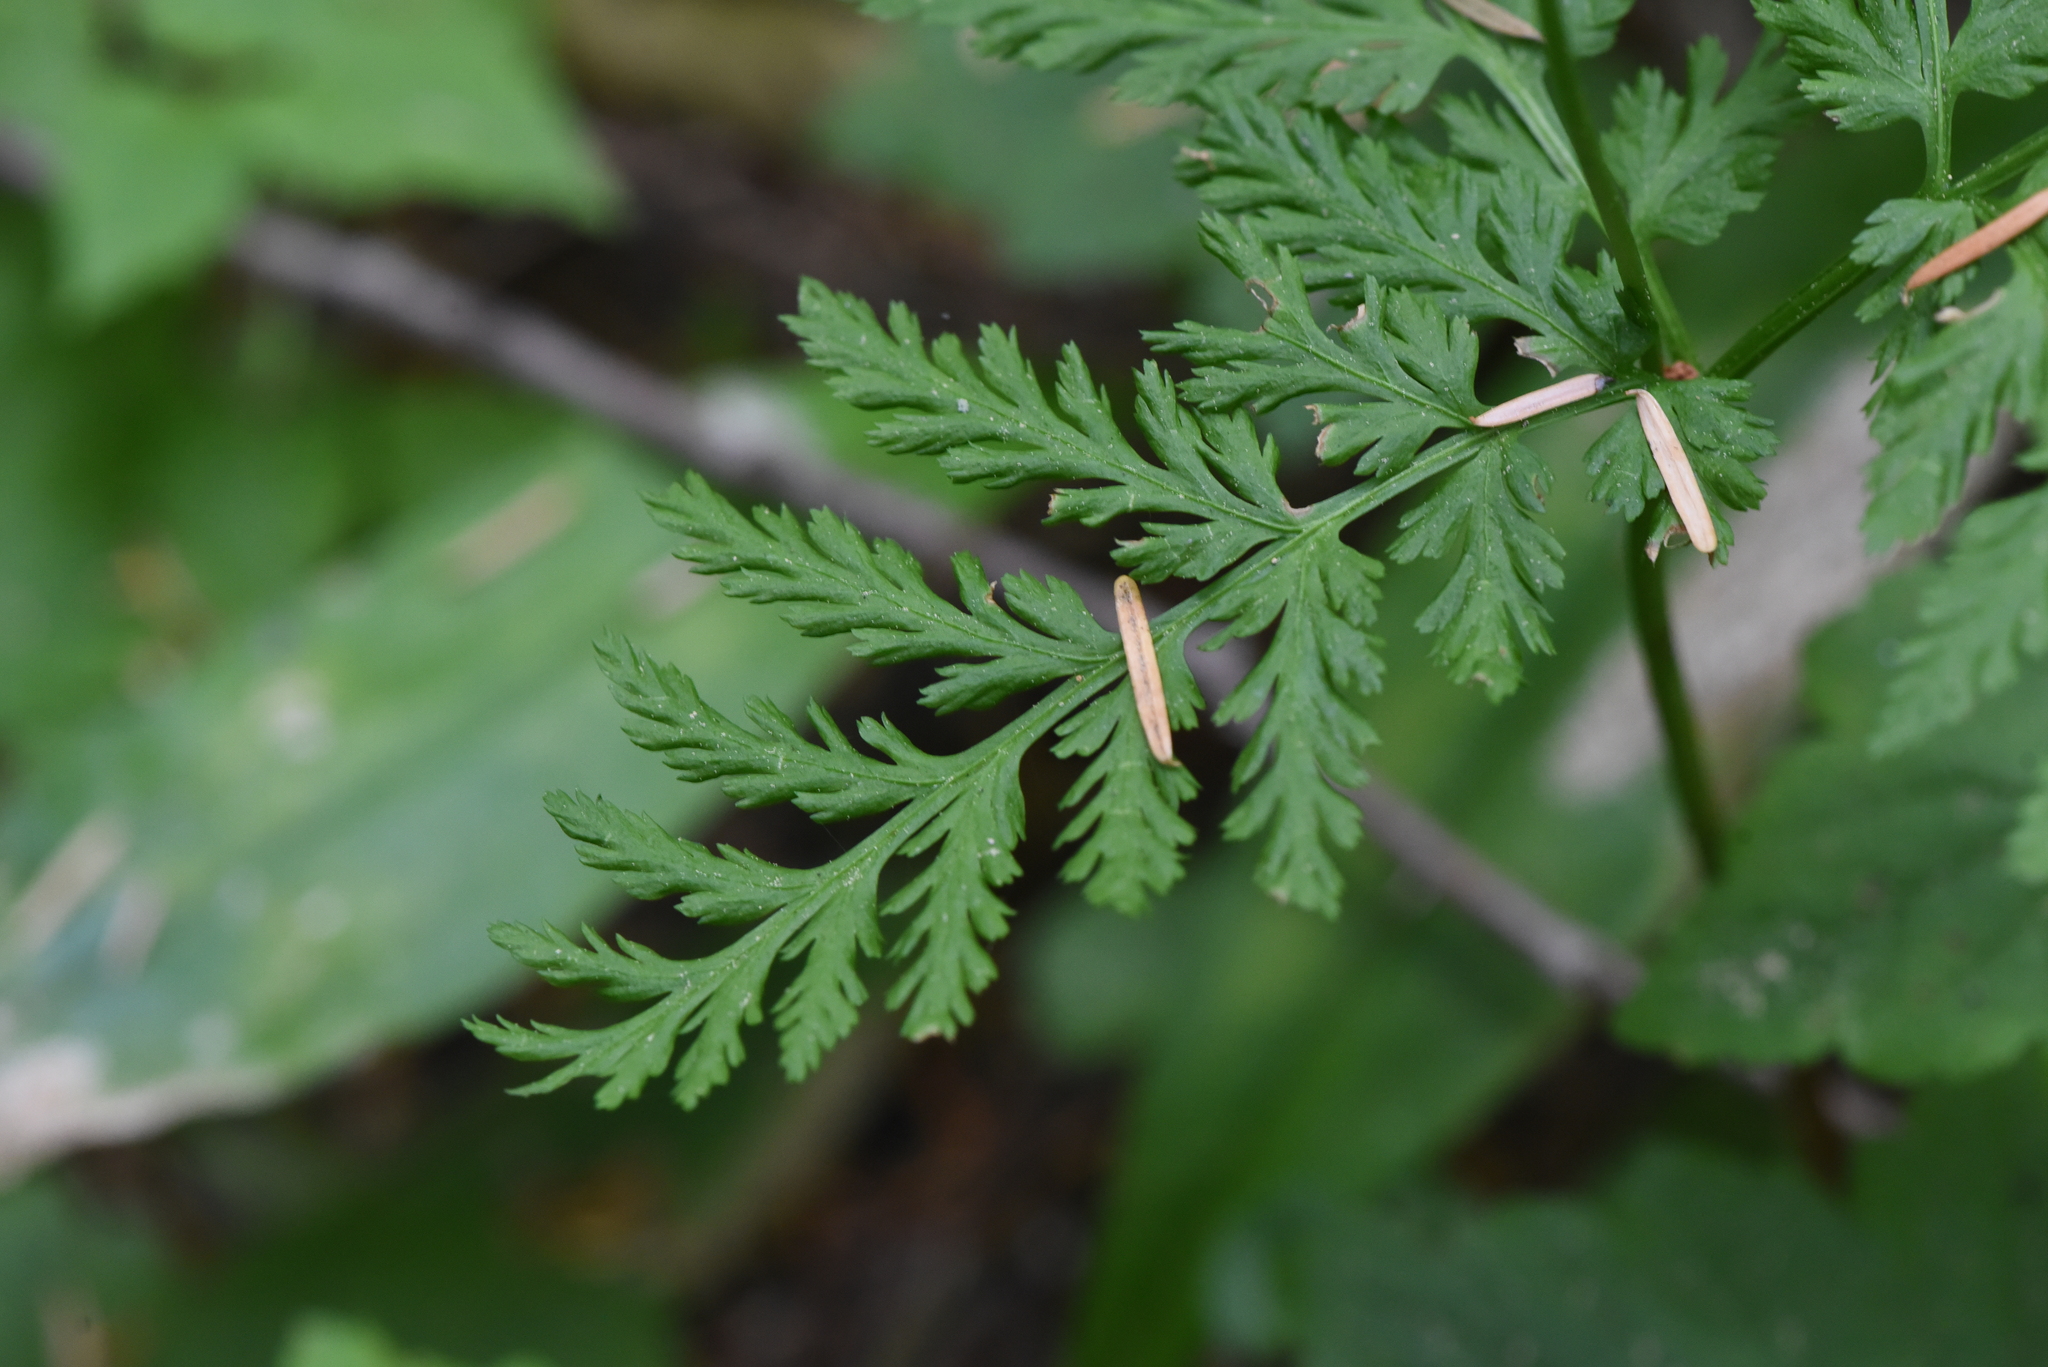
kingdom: Plantae
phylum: Tracheophyta
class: Polypodiopsida
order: Ophioglossales
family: Ophioglossaceae
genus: Botrypus
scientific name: Botrypus virginianus
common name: Common grapefern
